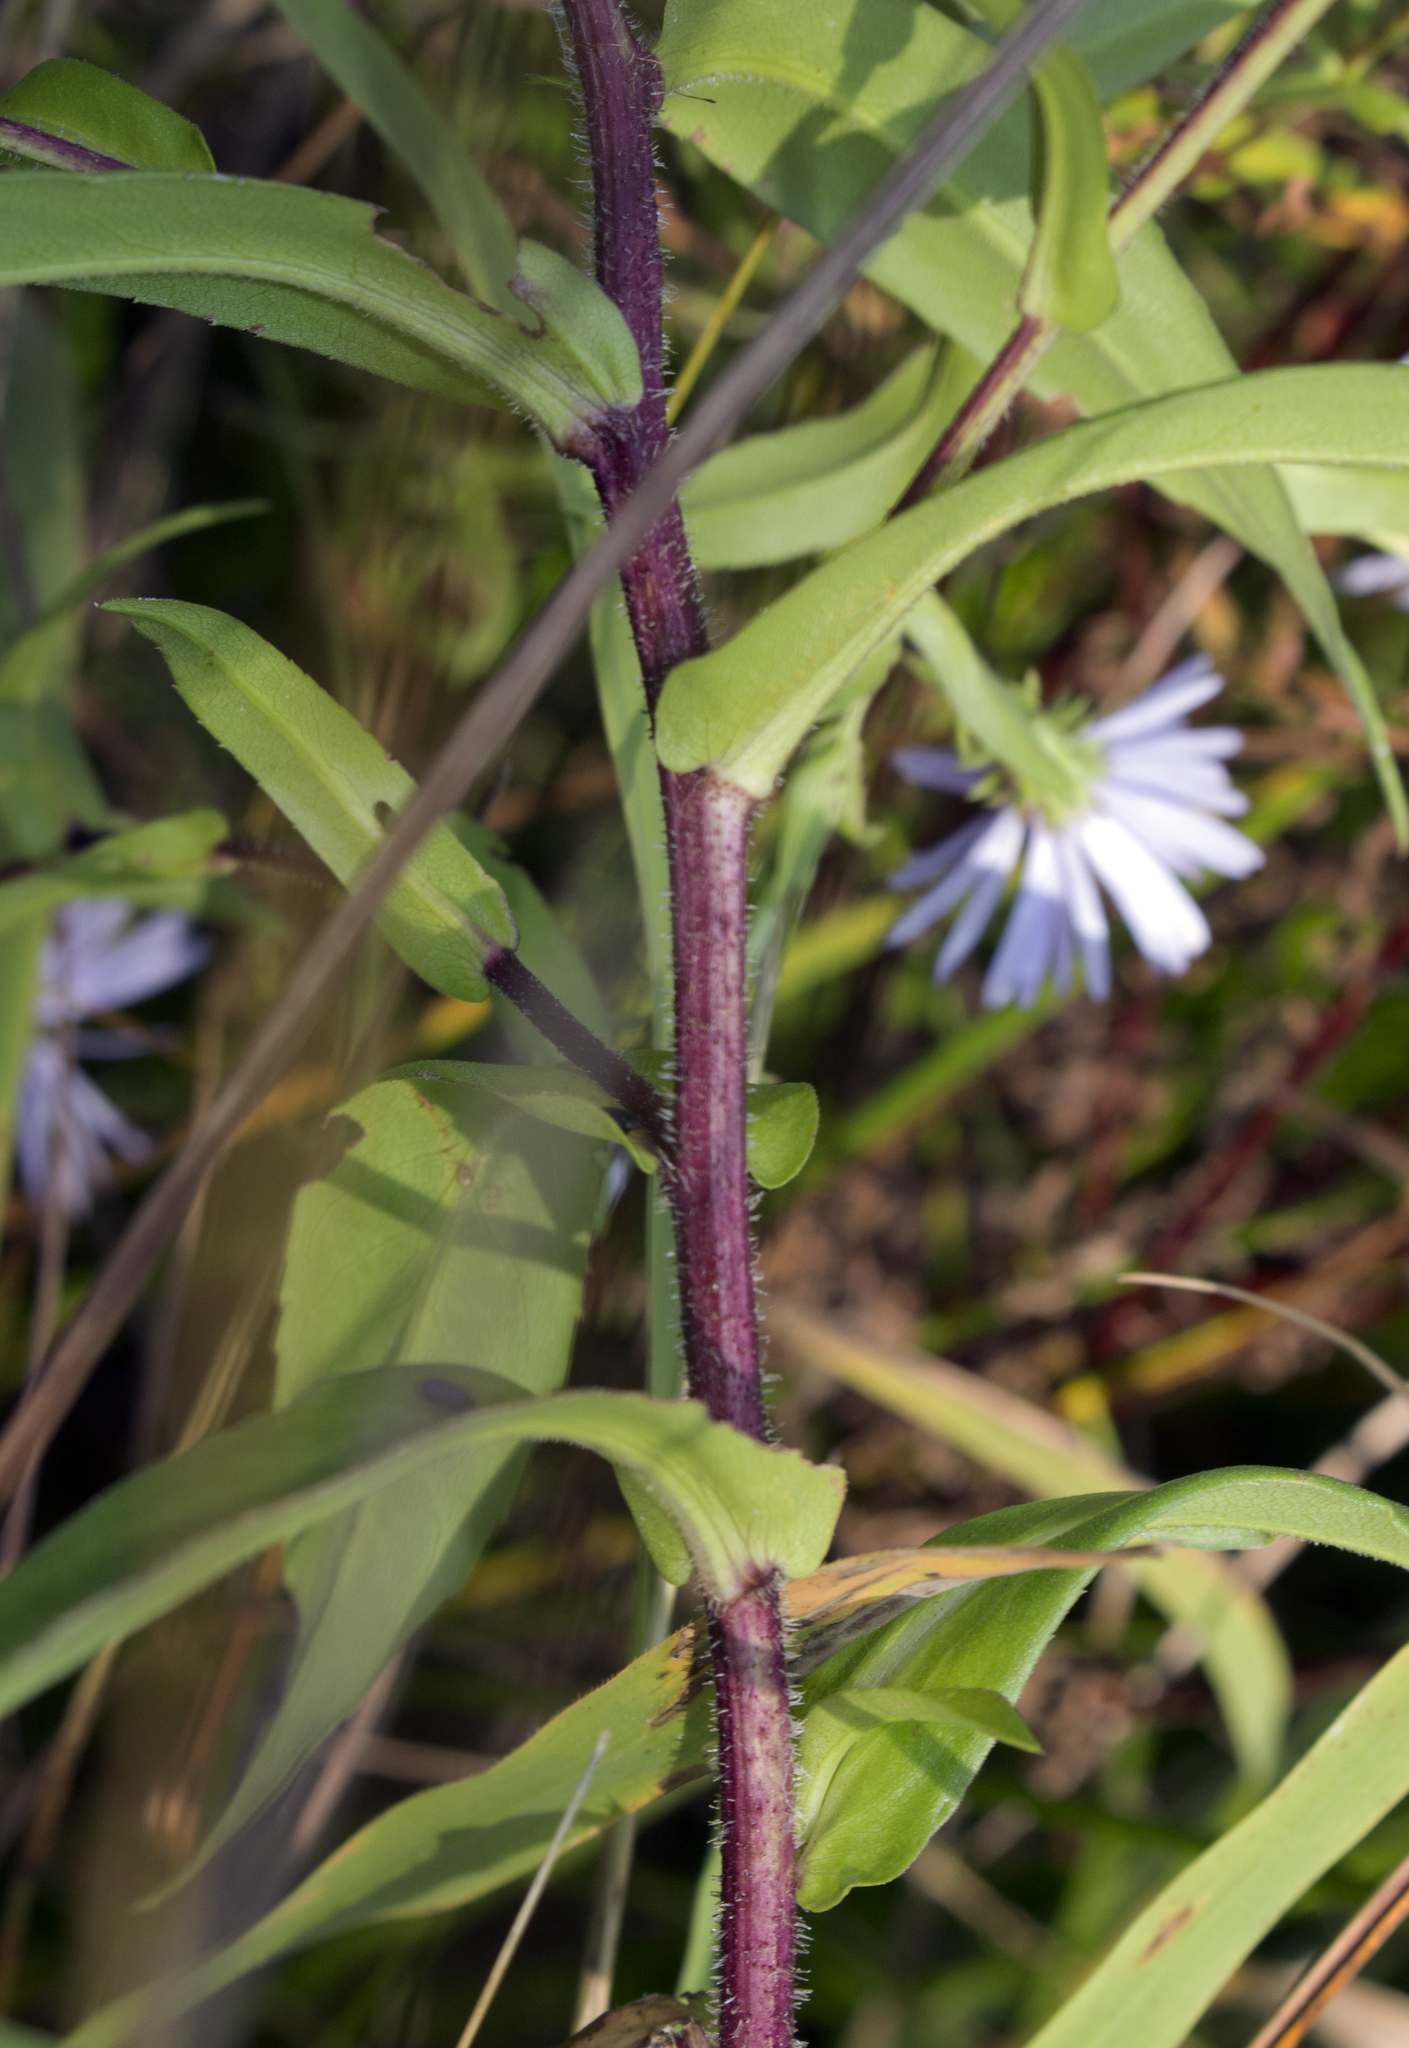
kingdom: Plantae
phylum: Tracheophyta
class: Magnoliopsida
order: Asterales
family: Asteraceae
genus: Symphyotrichum
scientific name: Symphyotrichum puniceum
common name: Bog aster
